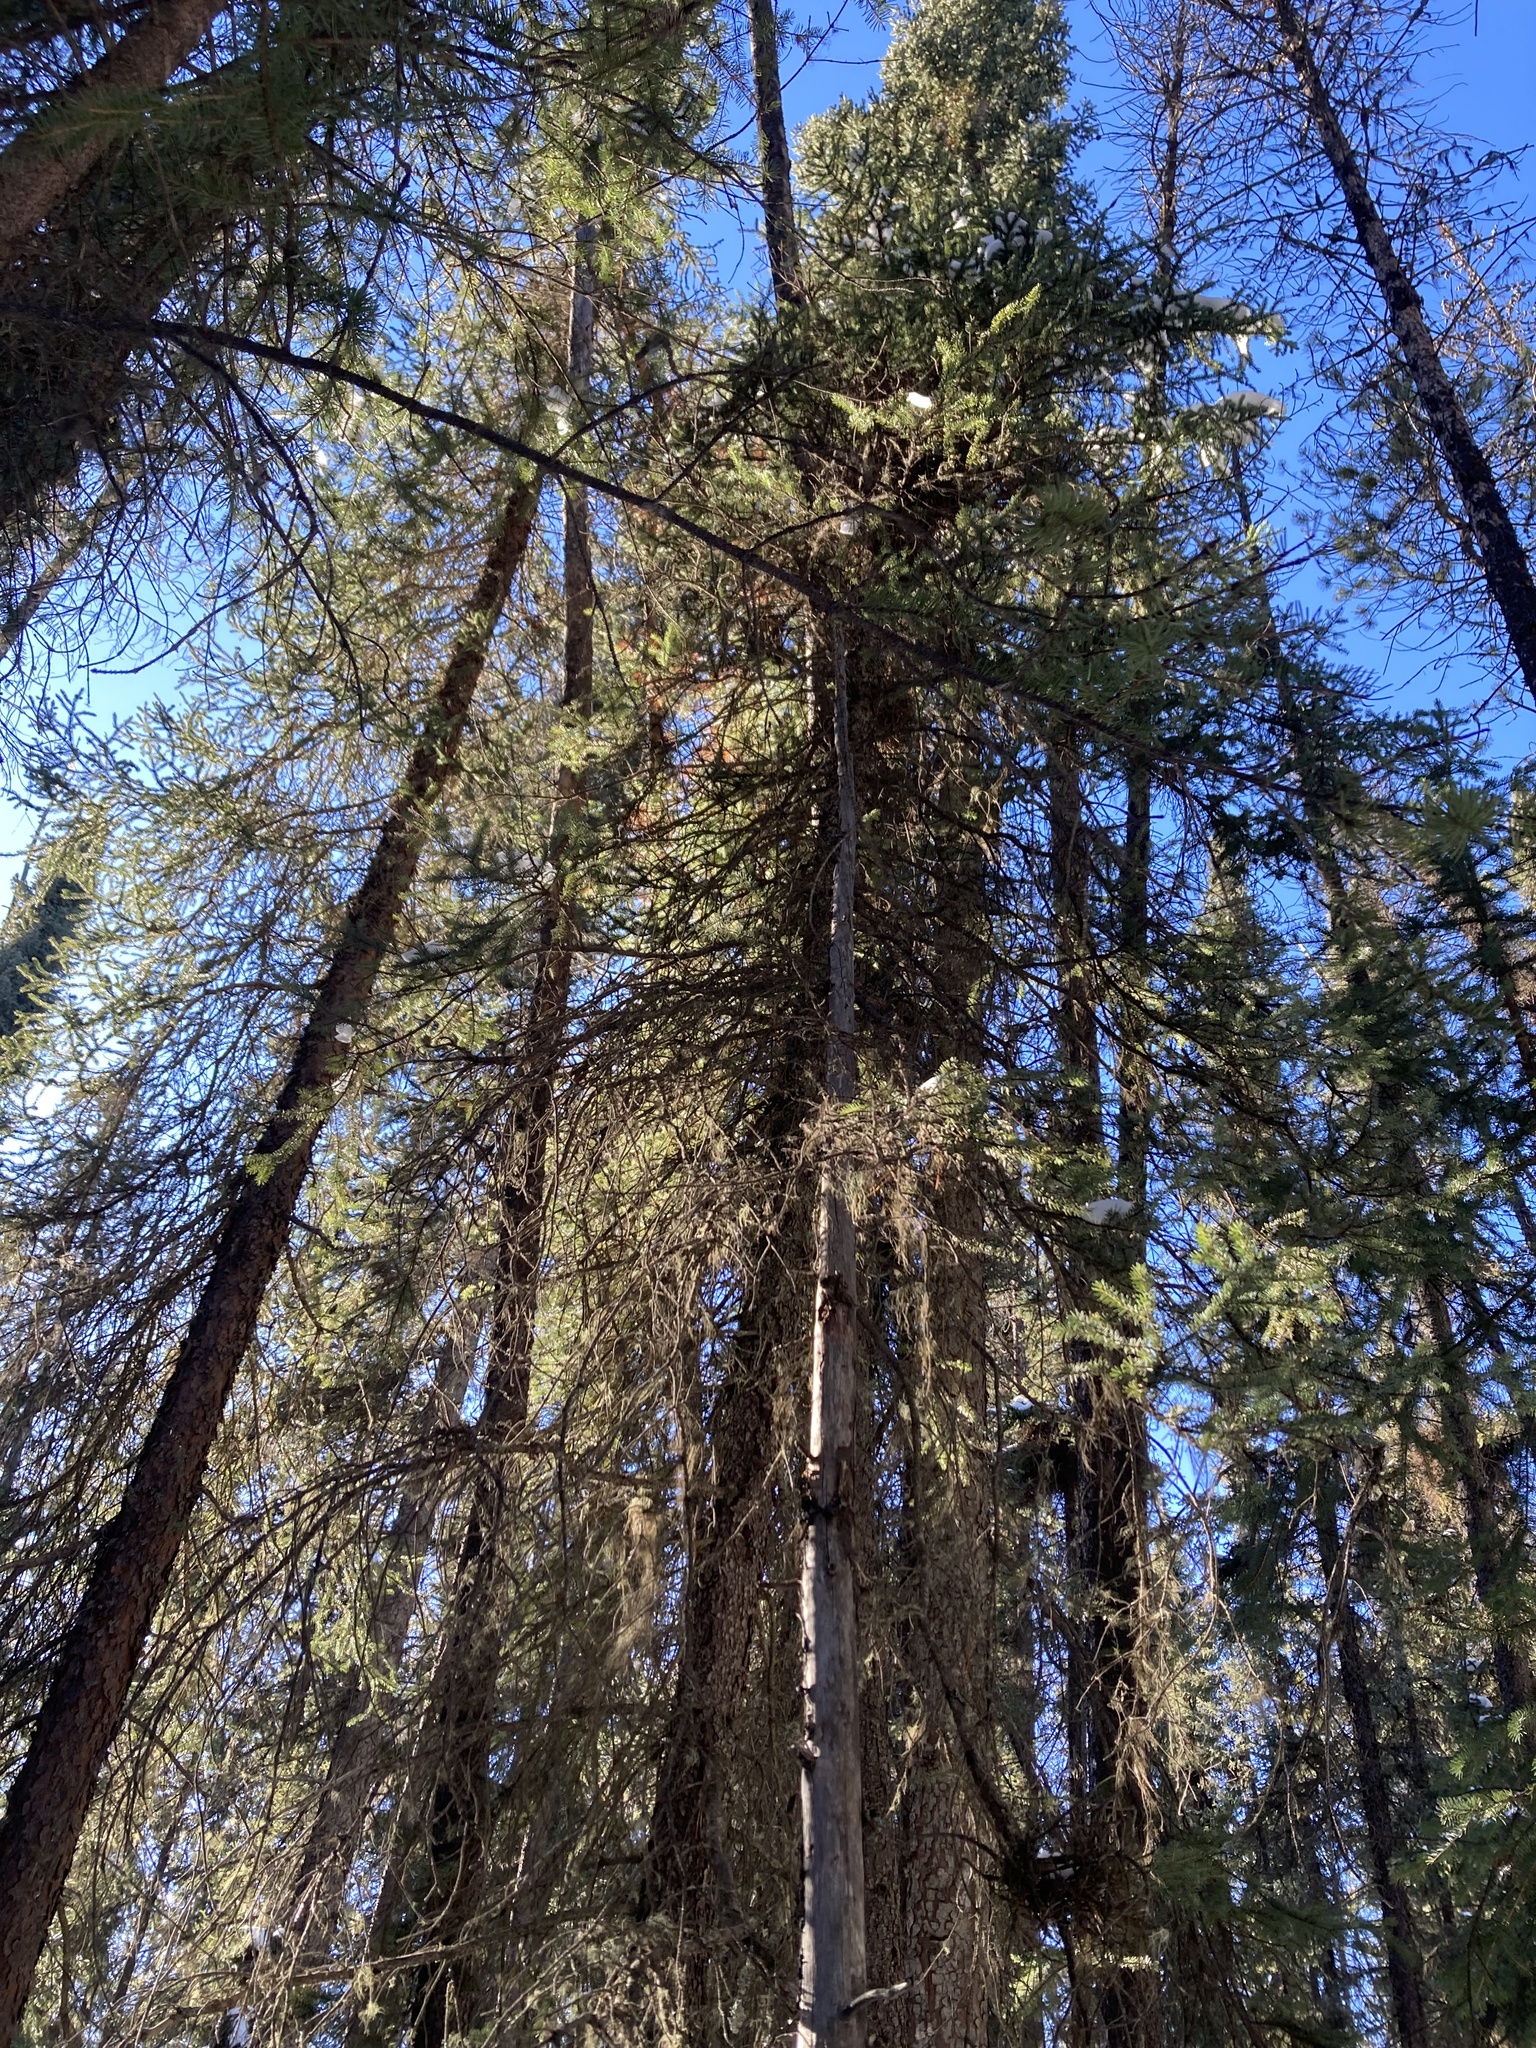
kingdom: Plantae
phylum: Tracheophyta
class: Pinopsida
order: Pinales
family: Pinaceae
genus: Picea
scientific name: Picea mariana
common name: Black spruce
